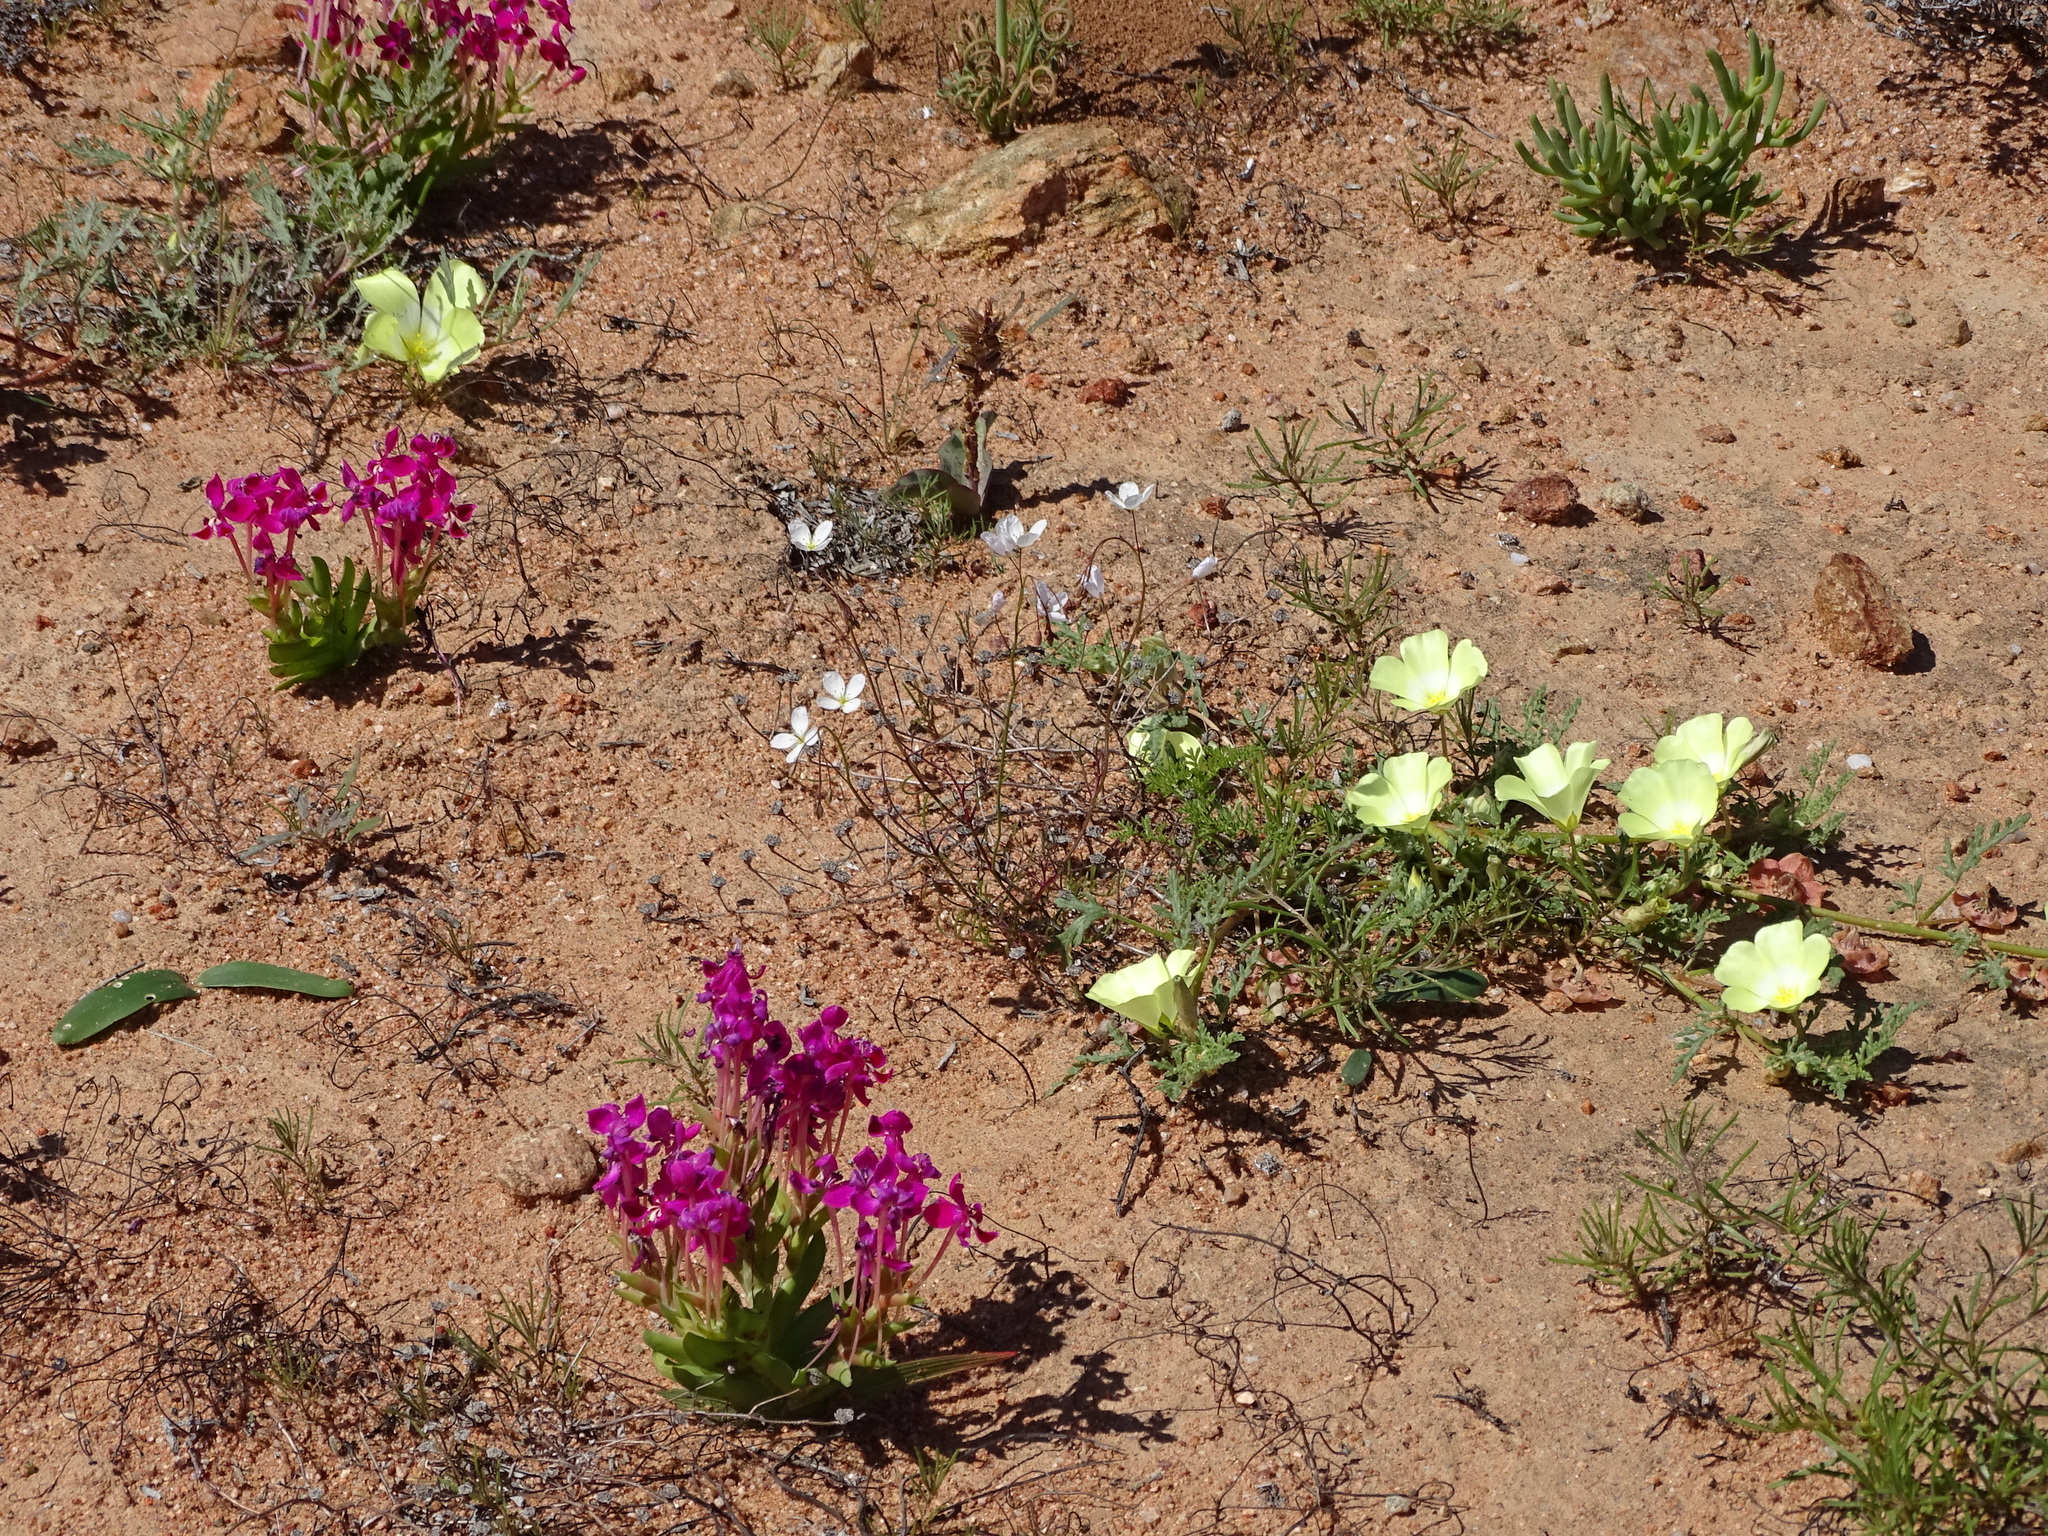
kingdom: Plantae
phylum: Tracheophyta
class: Magnoliopsida
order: Malvales
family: Neuradaceae
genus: Grielum
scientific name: Grielum humifusum
